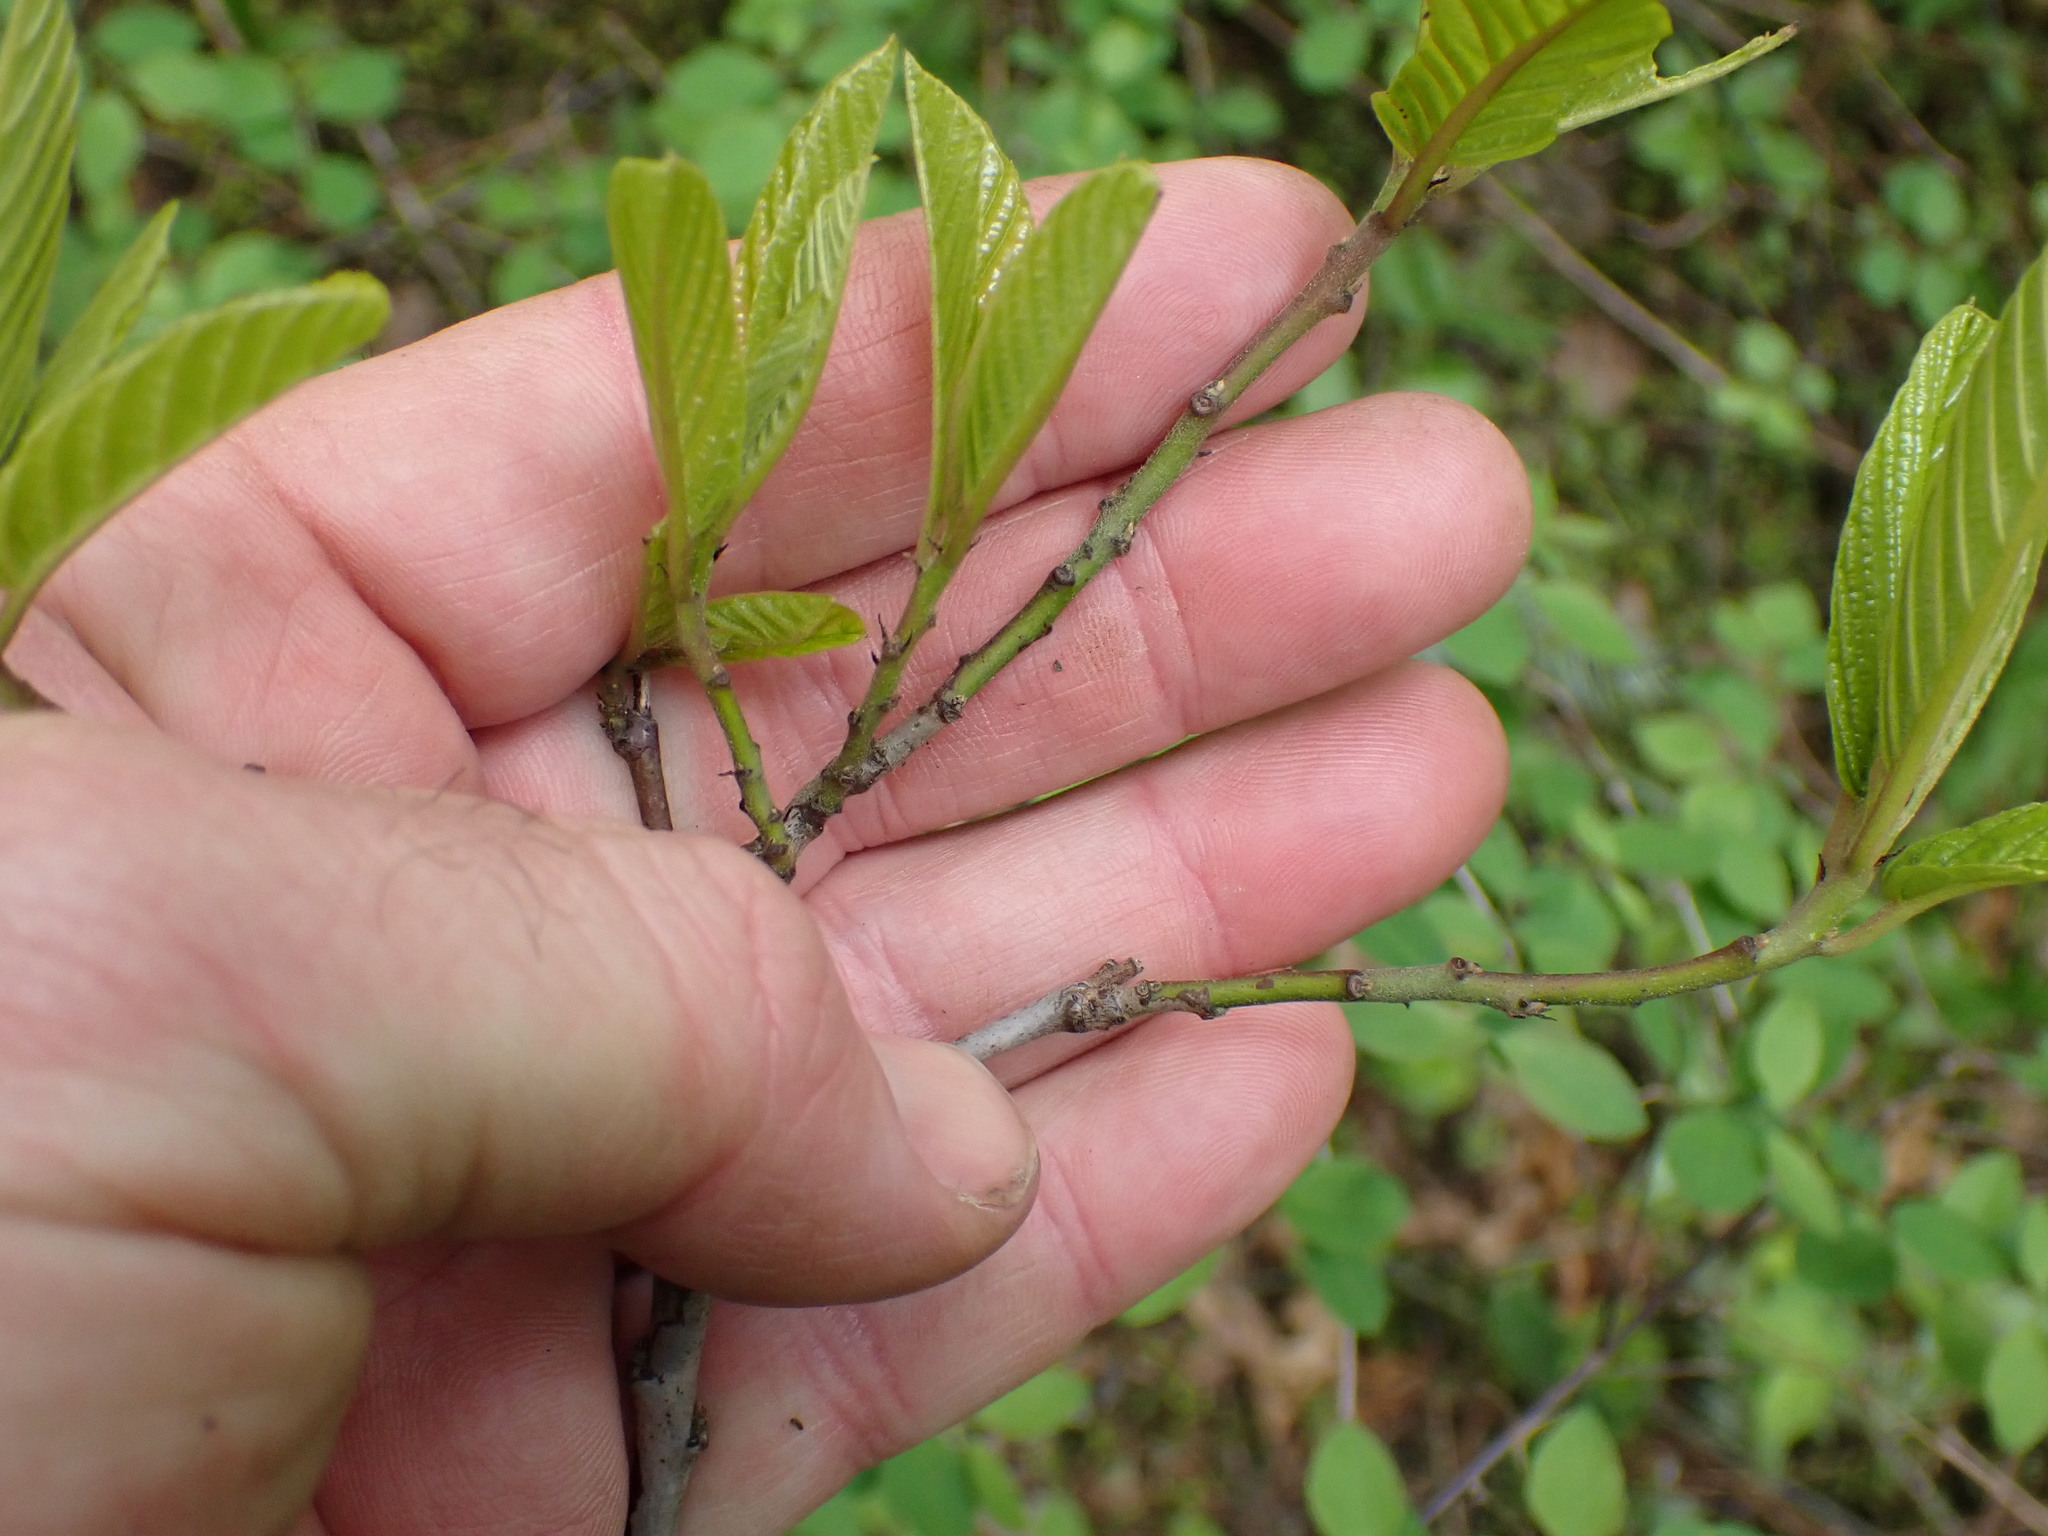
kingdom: Plantae
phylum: Tracheophyta
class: Magnoliopsida
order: Rosales
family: Rhamnaceae
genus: Frangula
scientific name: Frangula purshiana
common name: Cascara buckthorn
